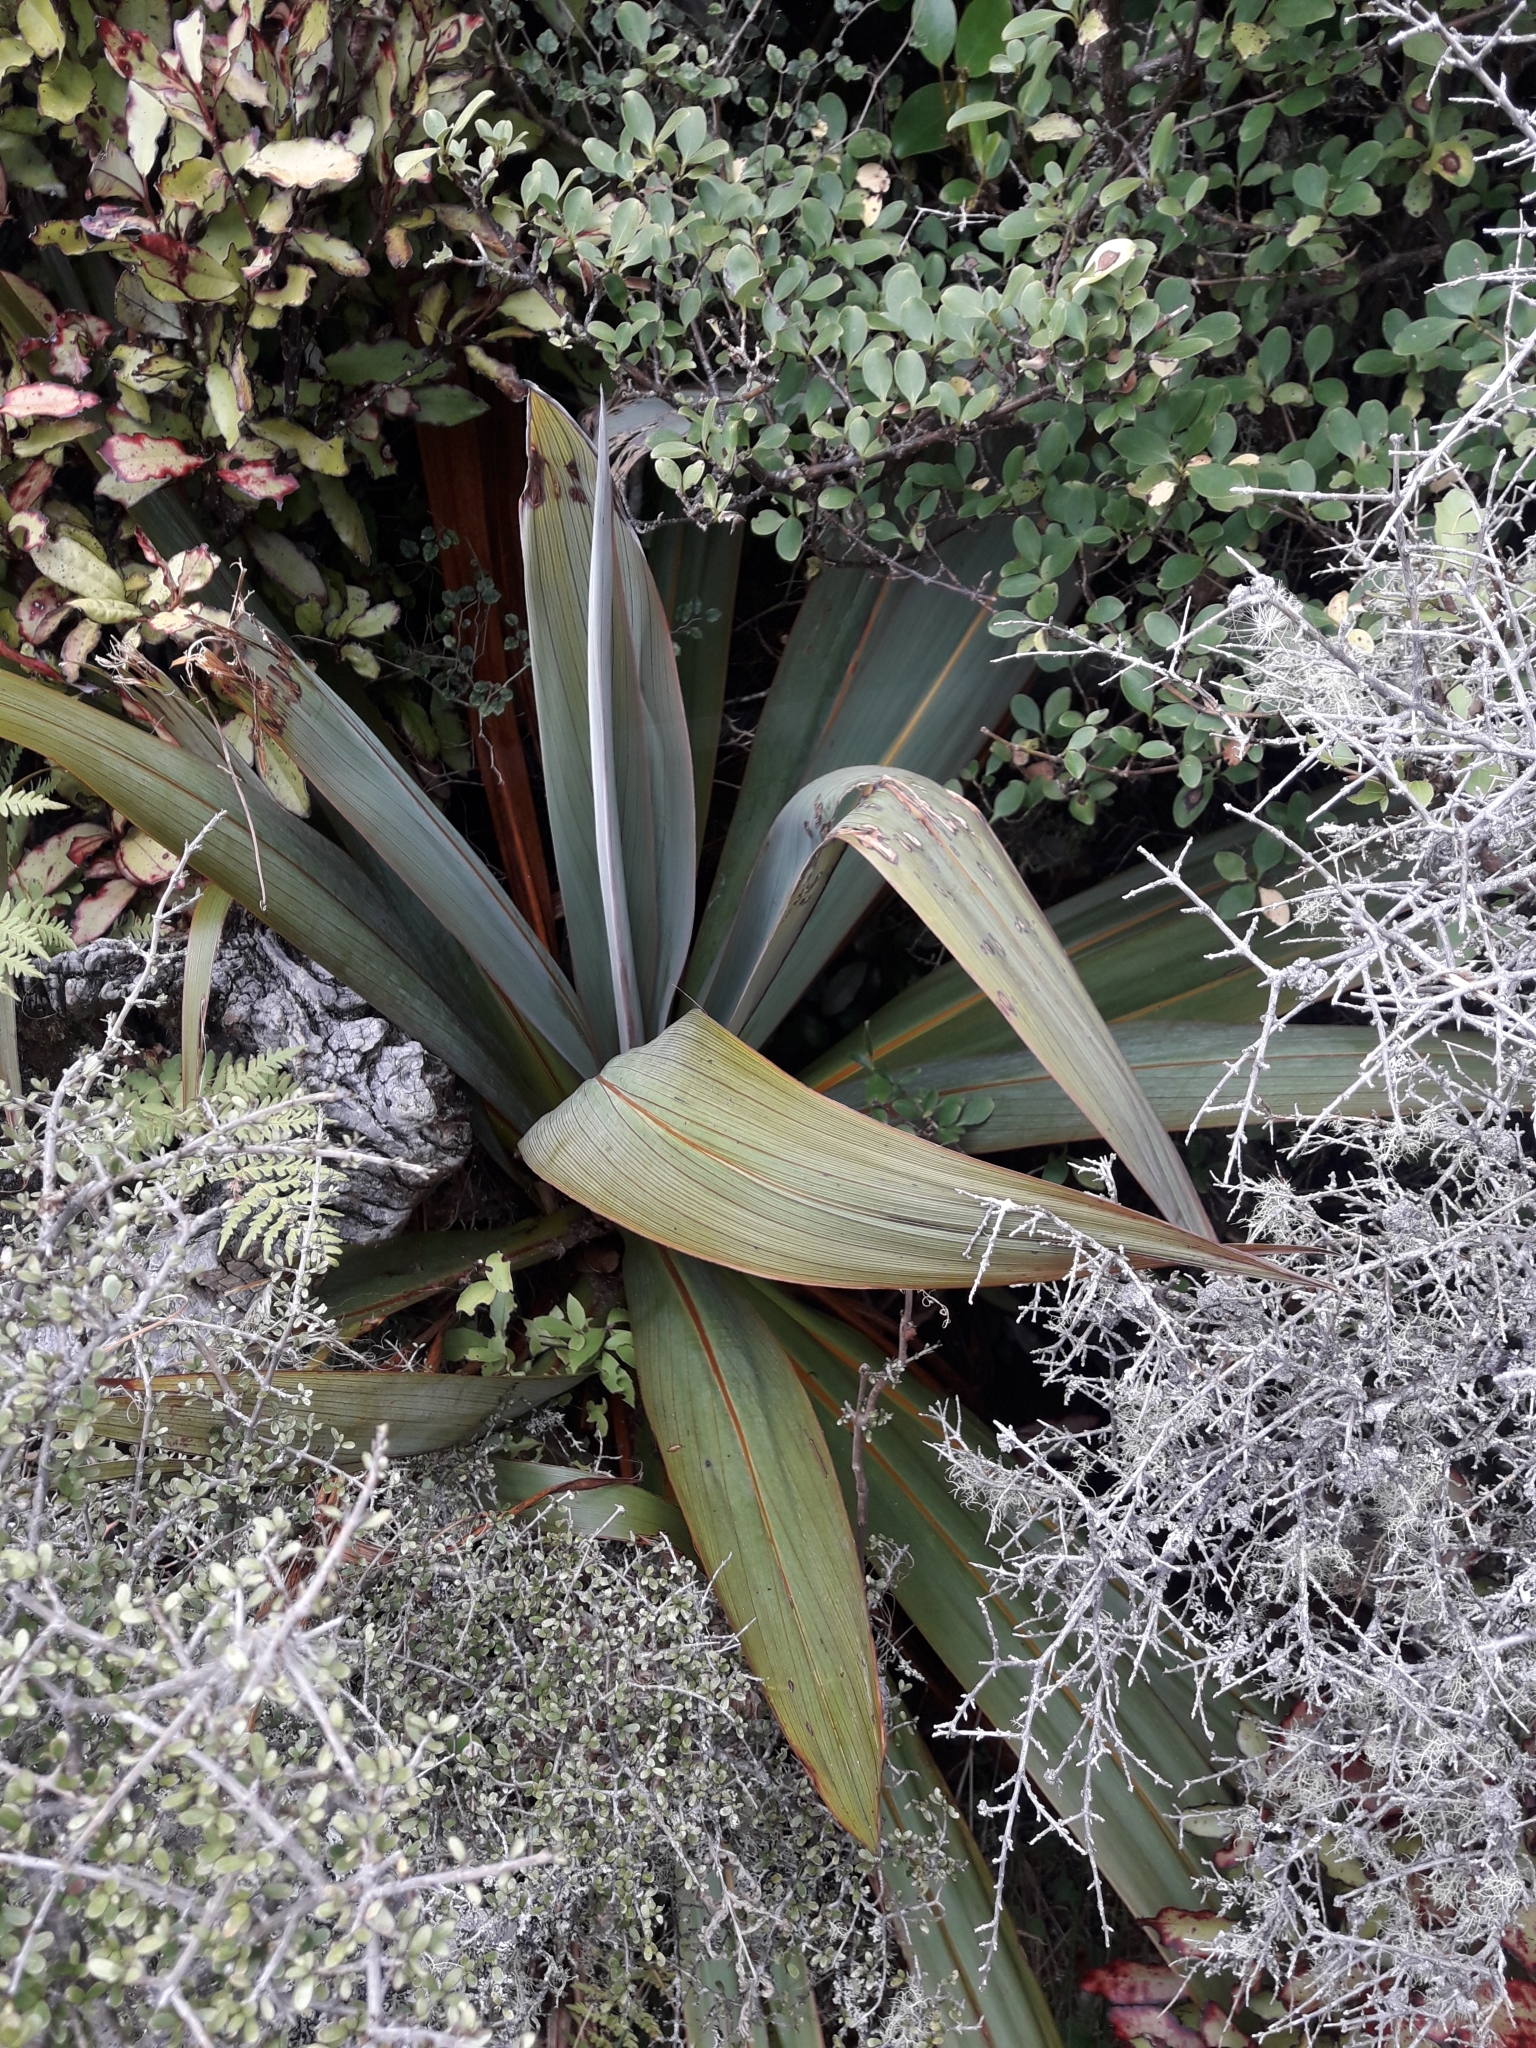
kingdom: Plantae
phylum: Tracheophyta
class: Liliopsida
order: Asparagales
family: Asparagaceae
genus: Cordyline
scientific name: Cordyline indivisa
